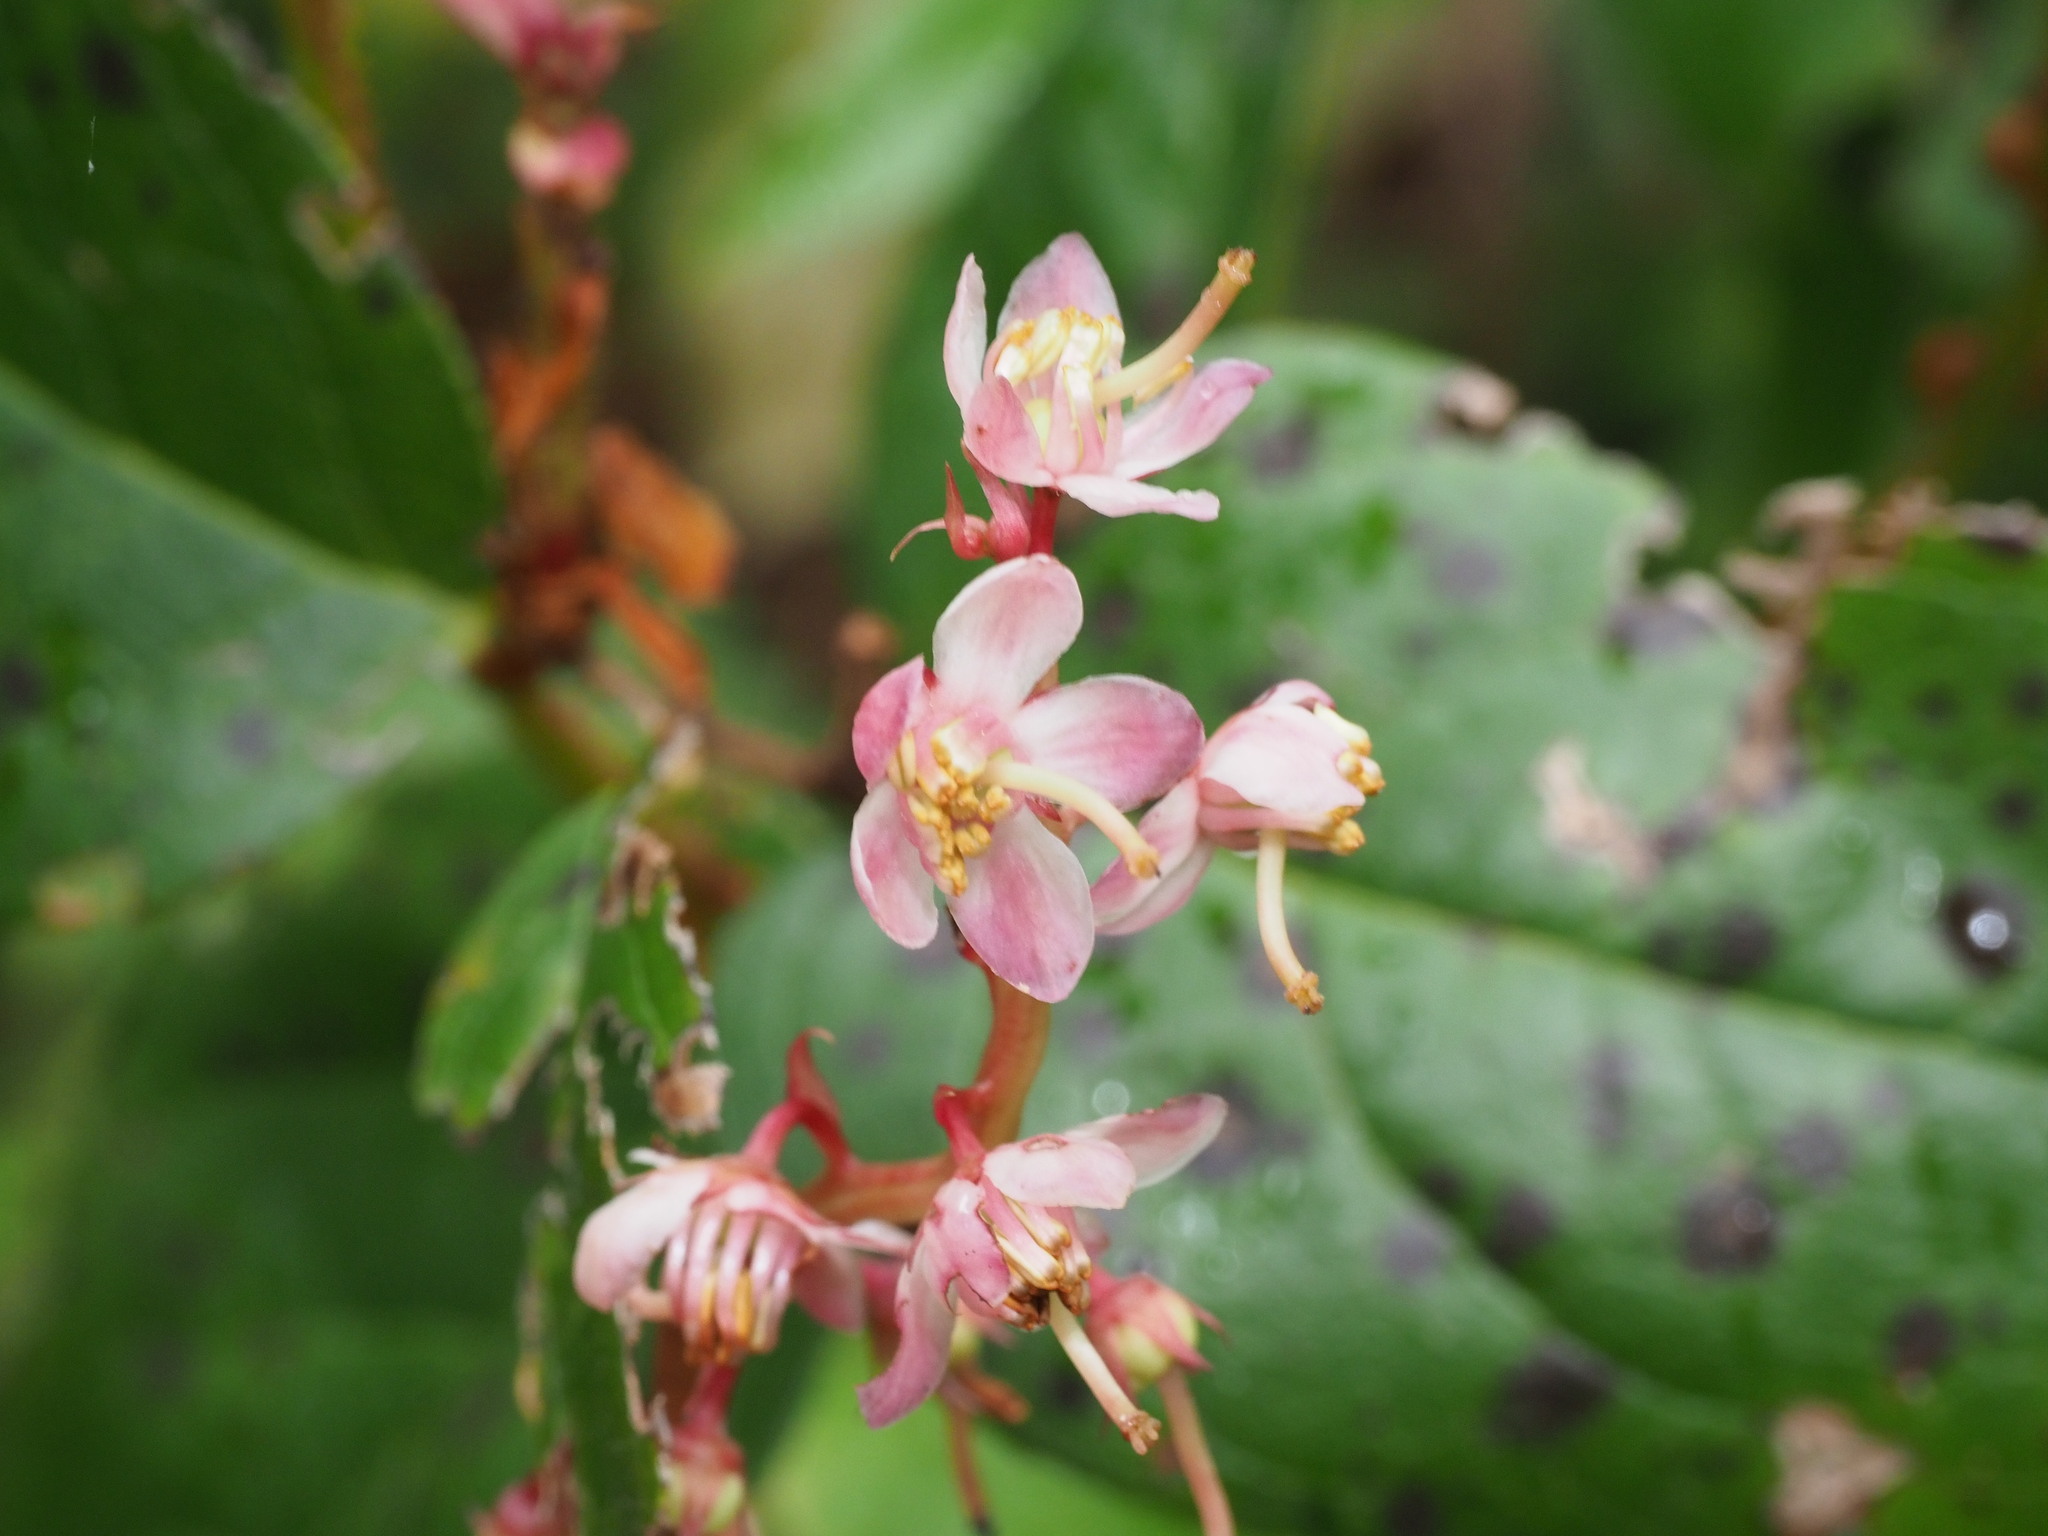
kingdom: Plantae
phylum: Tracheophyta
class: Magnoliopsida
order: Ericales
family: Ericaceae
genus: Pyrola
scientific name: Pyrola asarifolia
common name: Bog wintergreen
